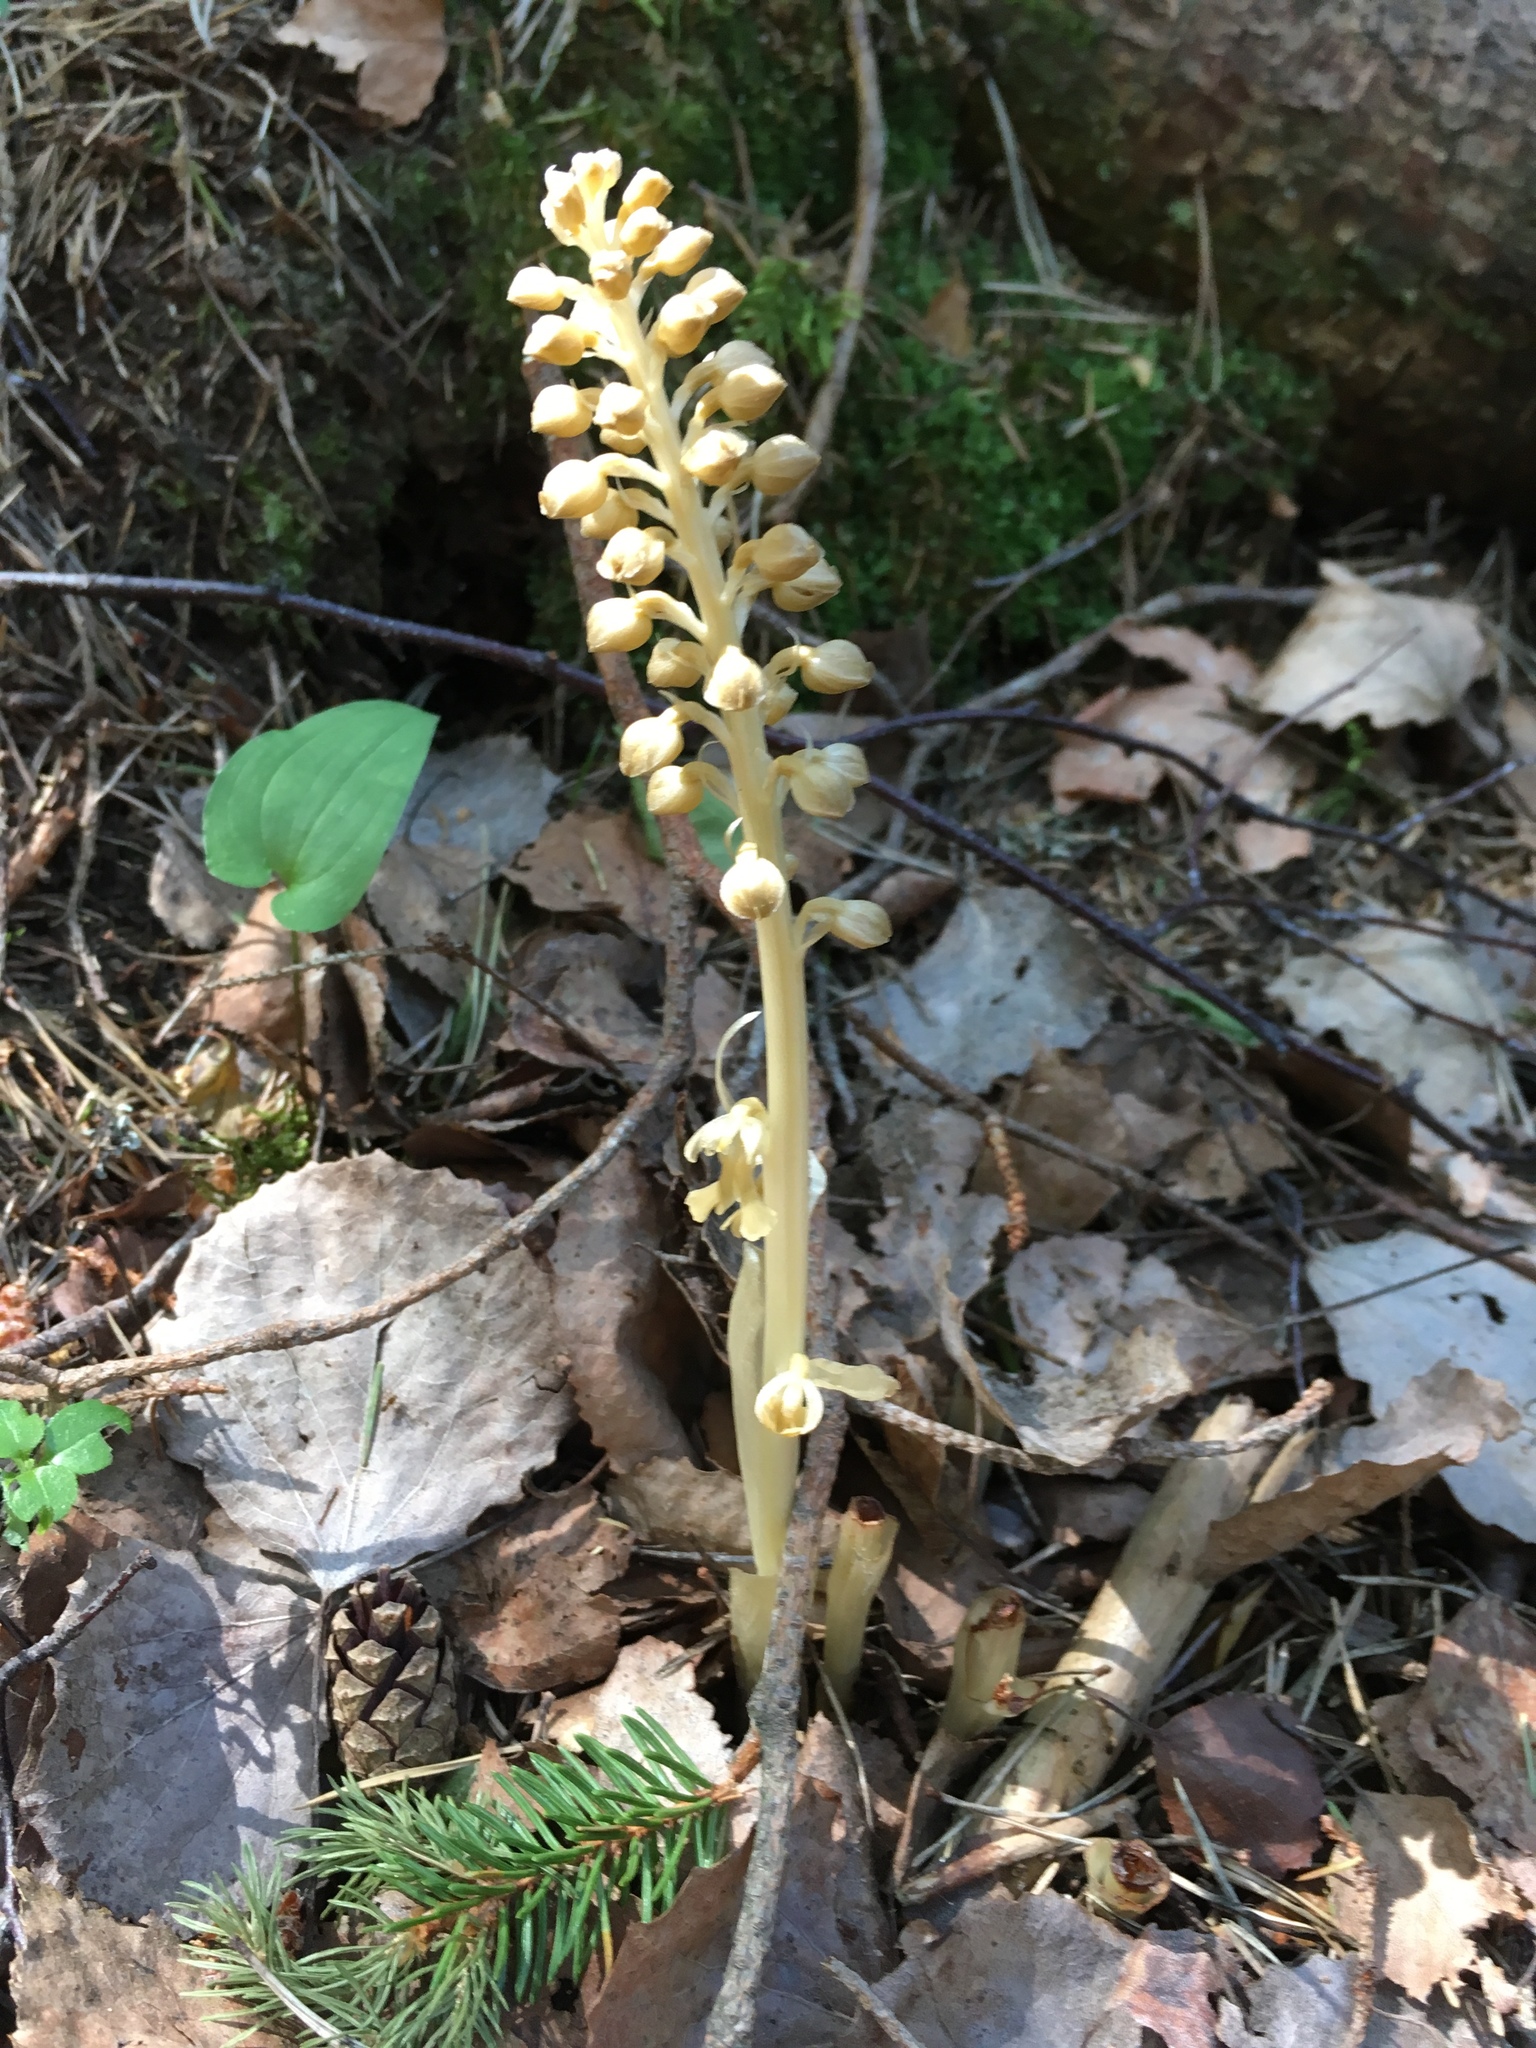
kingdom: Plantae
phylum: Tracheophyta
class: Liliopsida
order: Asparagales
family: Orchidaceae
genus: Neottia
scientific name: Neottia nidus-avis
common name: Bird's-nest orchid
